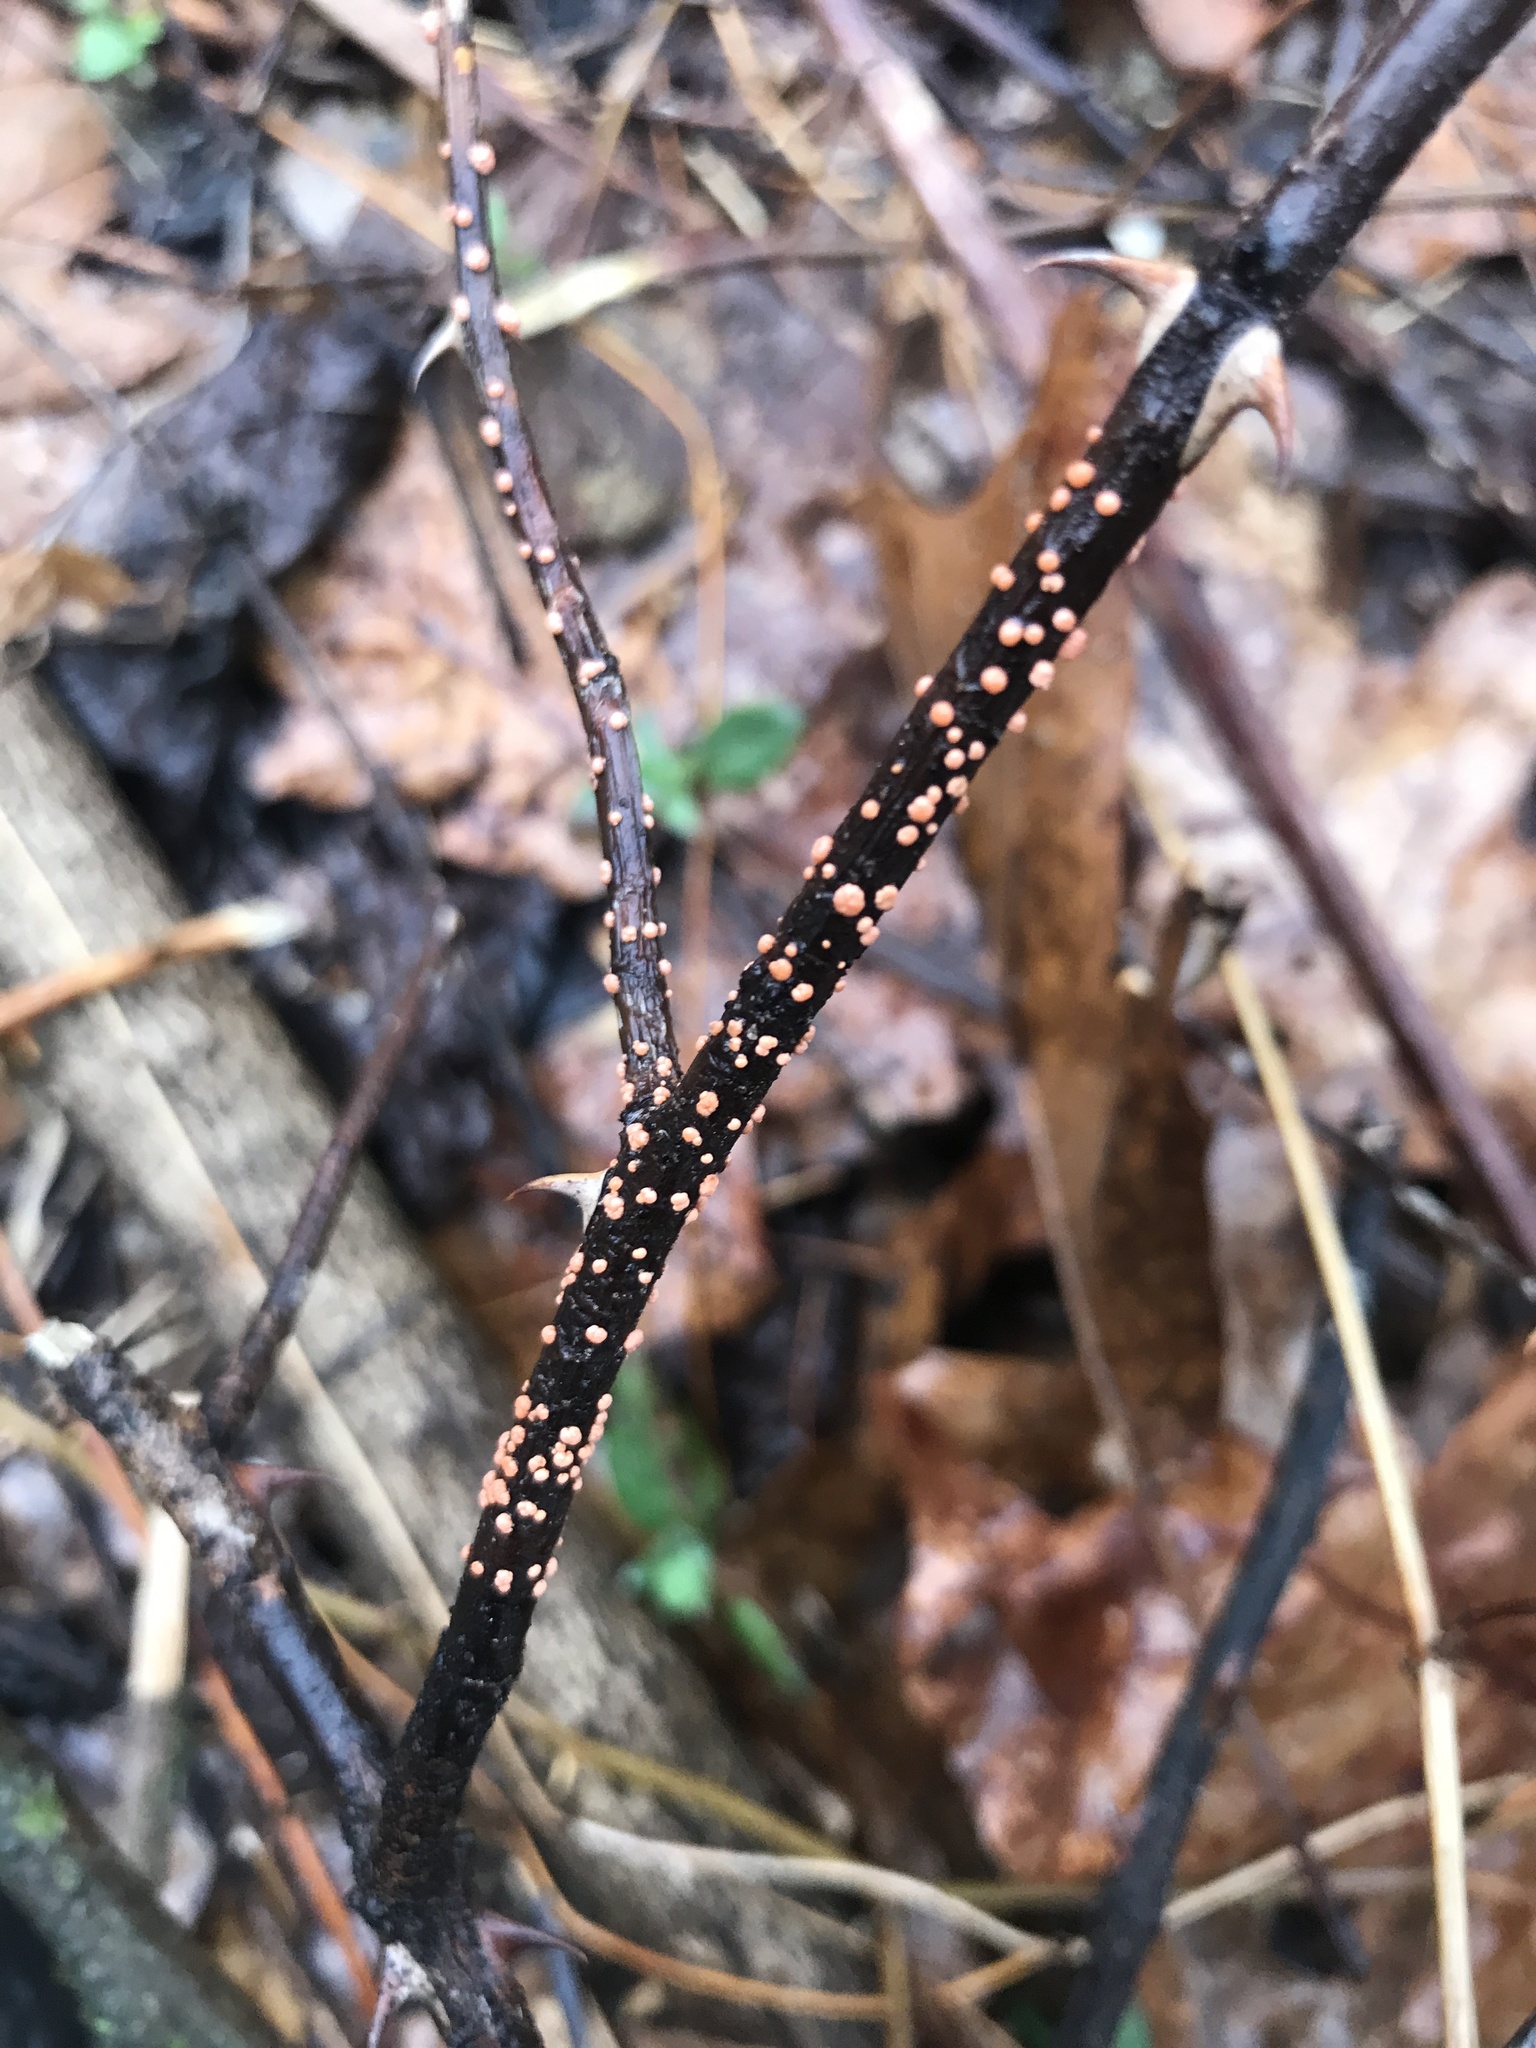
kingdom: Fungi
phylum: Ascomycota
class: Sordariomycetes
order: Hypocreales
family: Nectriaceae
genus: Nectria
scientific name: Nectria cinnabarina
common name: Coral spot
